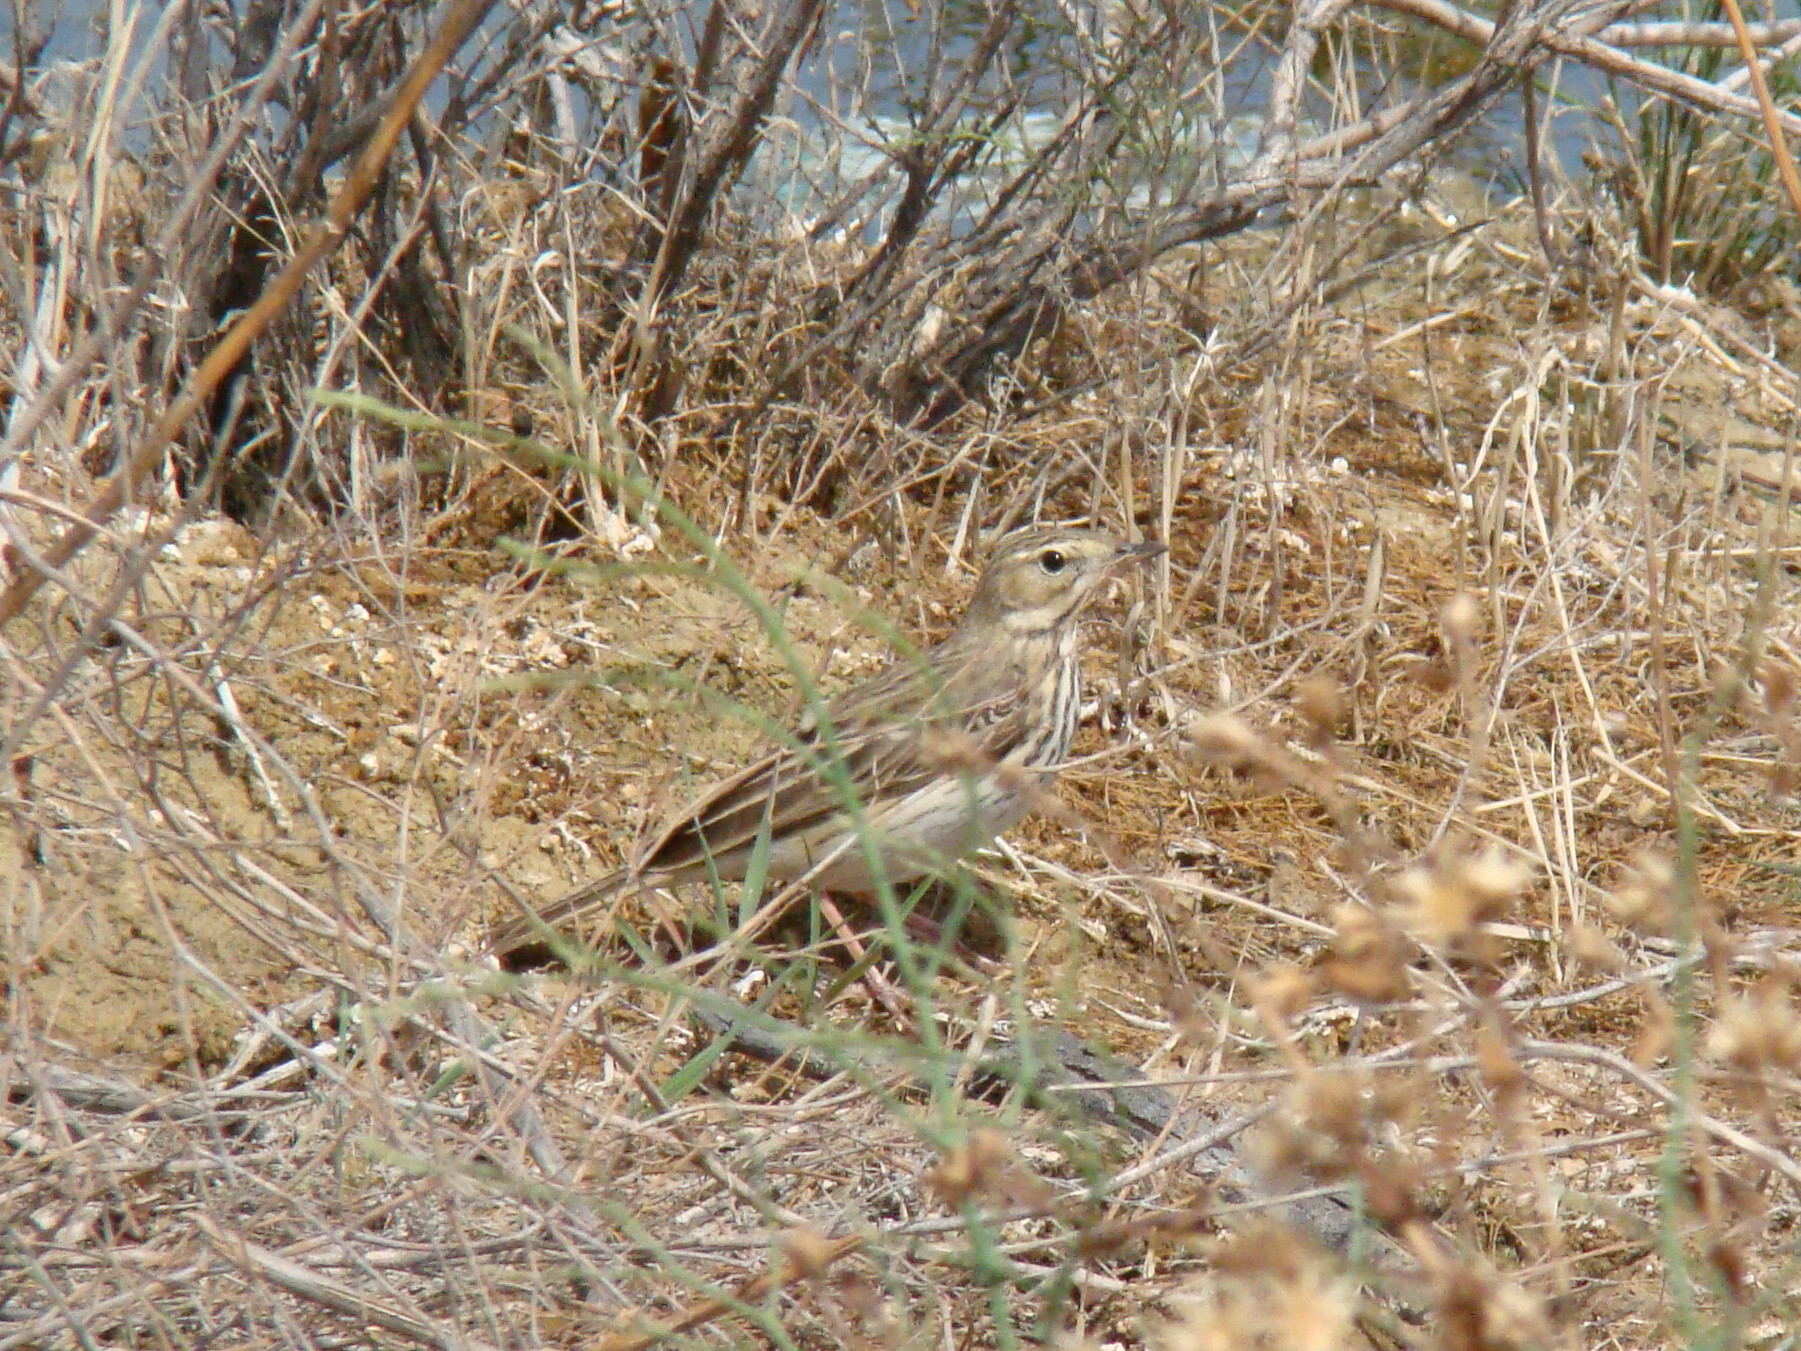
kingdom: Animalia
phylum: Chordata
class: Aves
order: Passeriformes
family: Motacillidae
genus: Anthus
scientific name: Anthus trivialis
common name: Tree pipit
